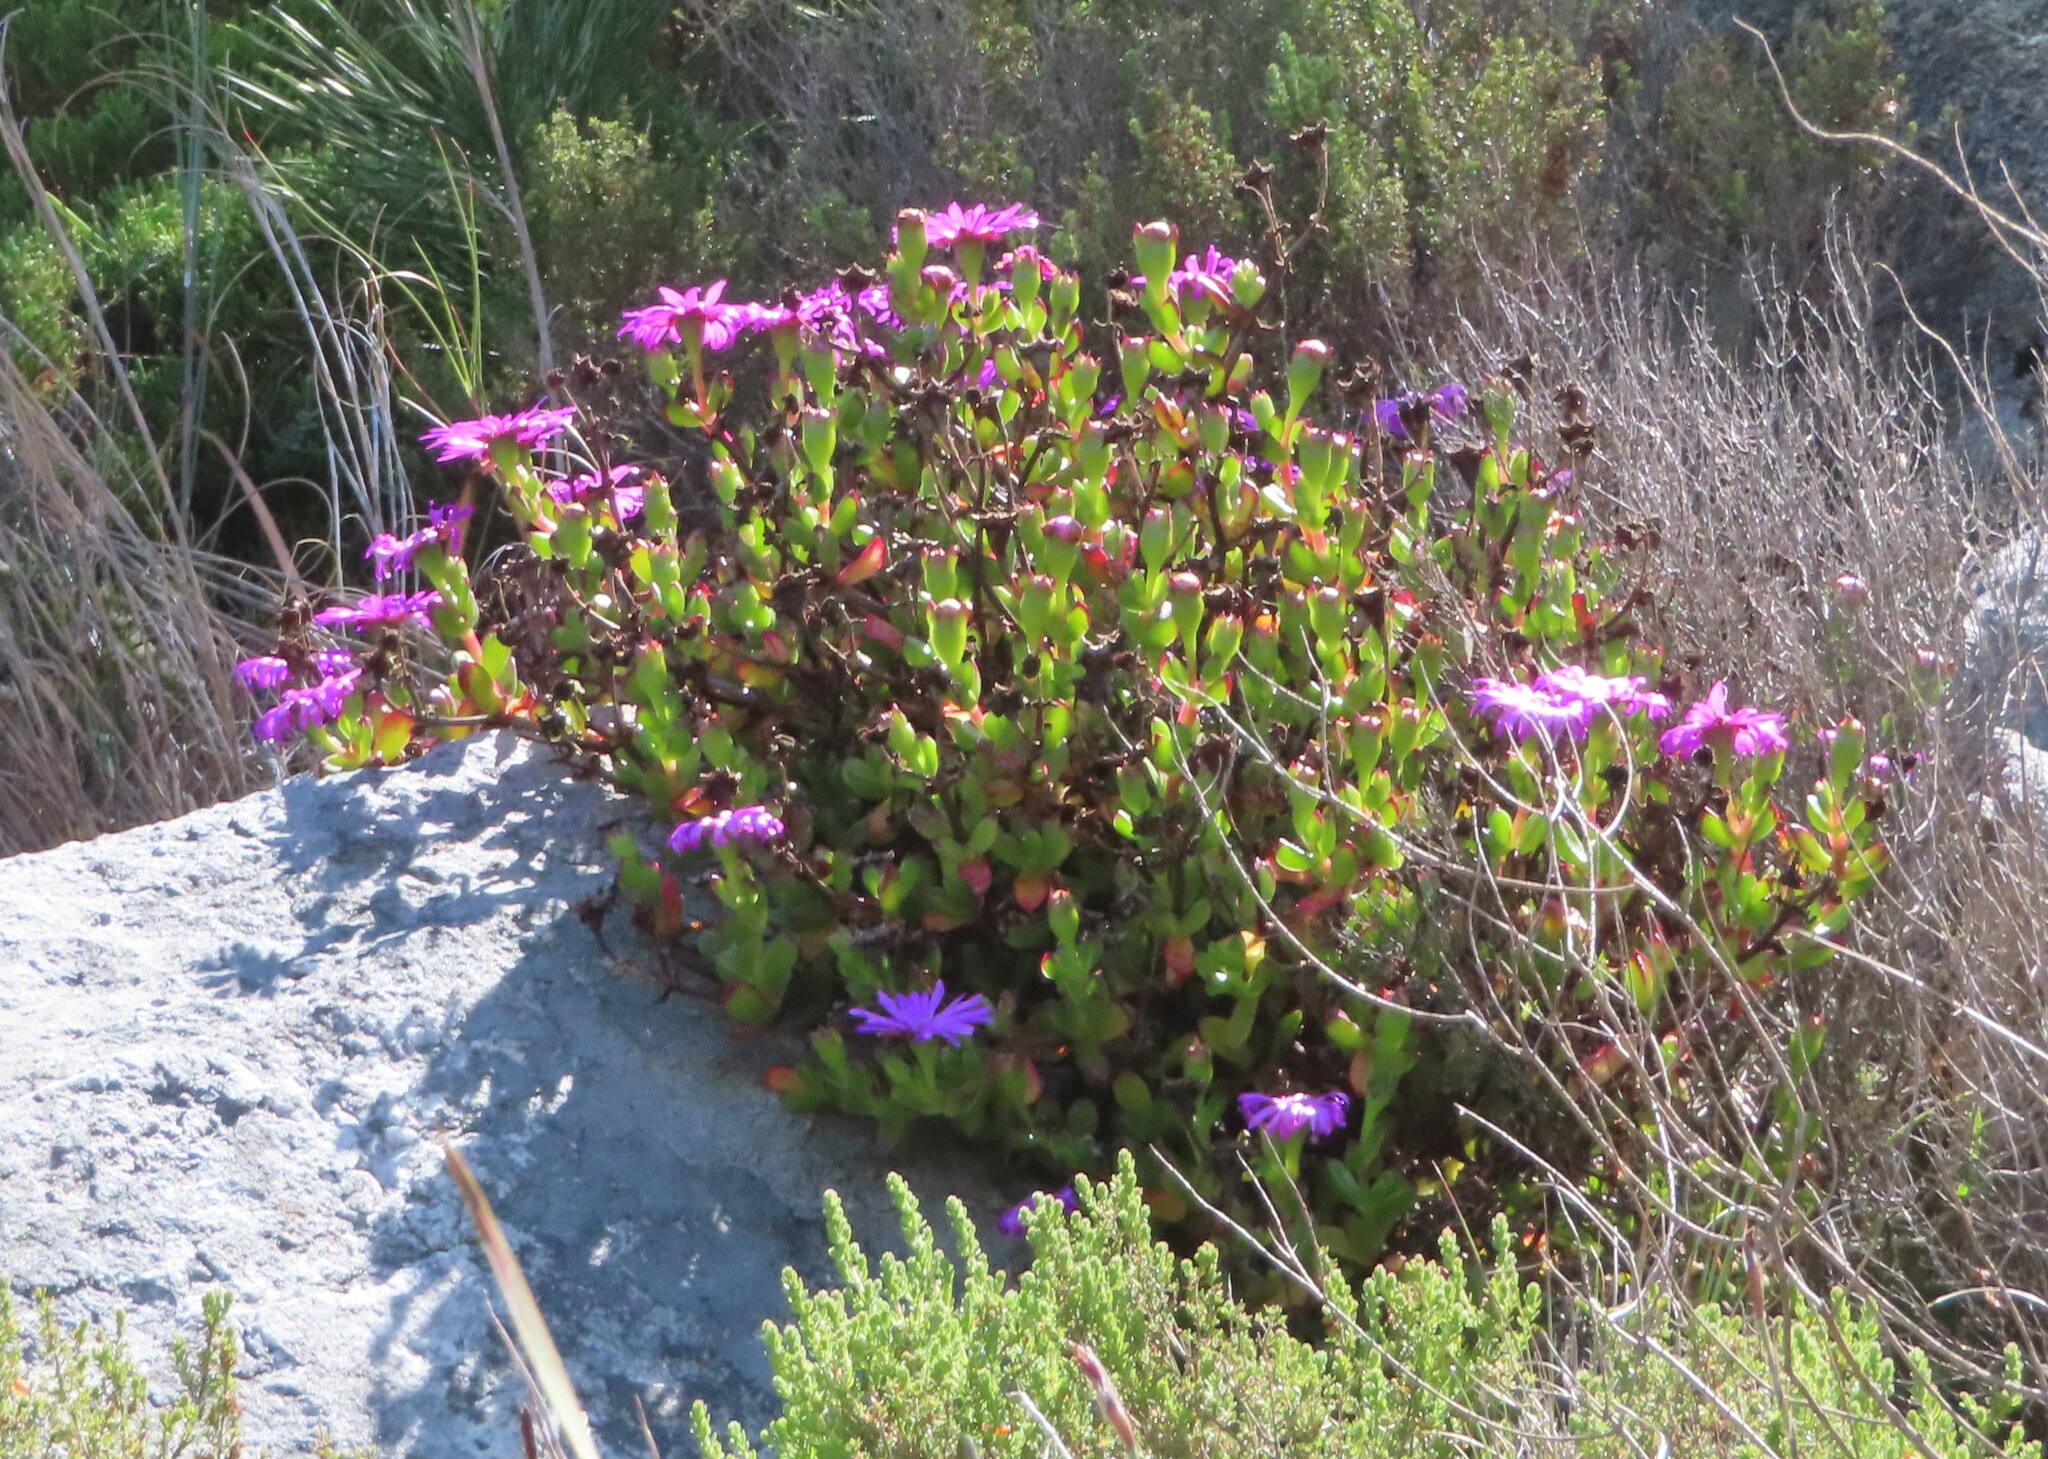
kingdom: Plantae
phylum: Tracheophyta
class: Magnoliopsida
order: Caryophyllales
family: Aizoaceae
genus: Erepsia
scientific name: Erepsia inclaudens
